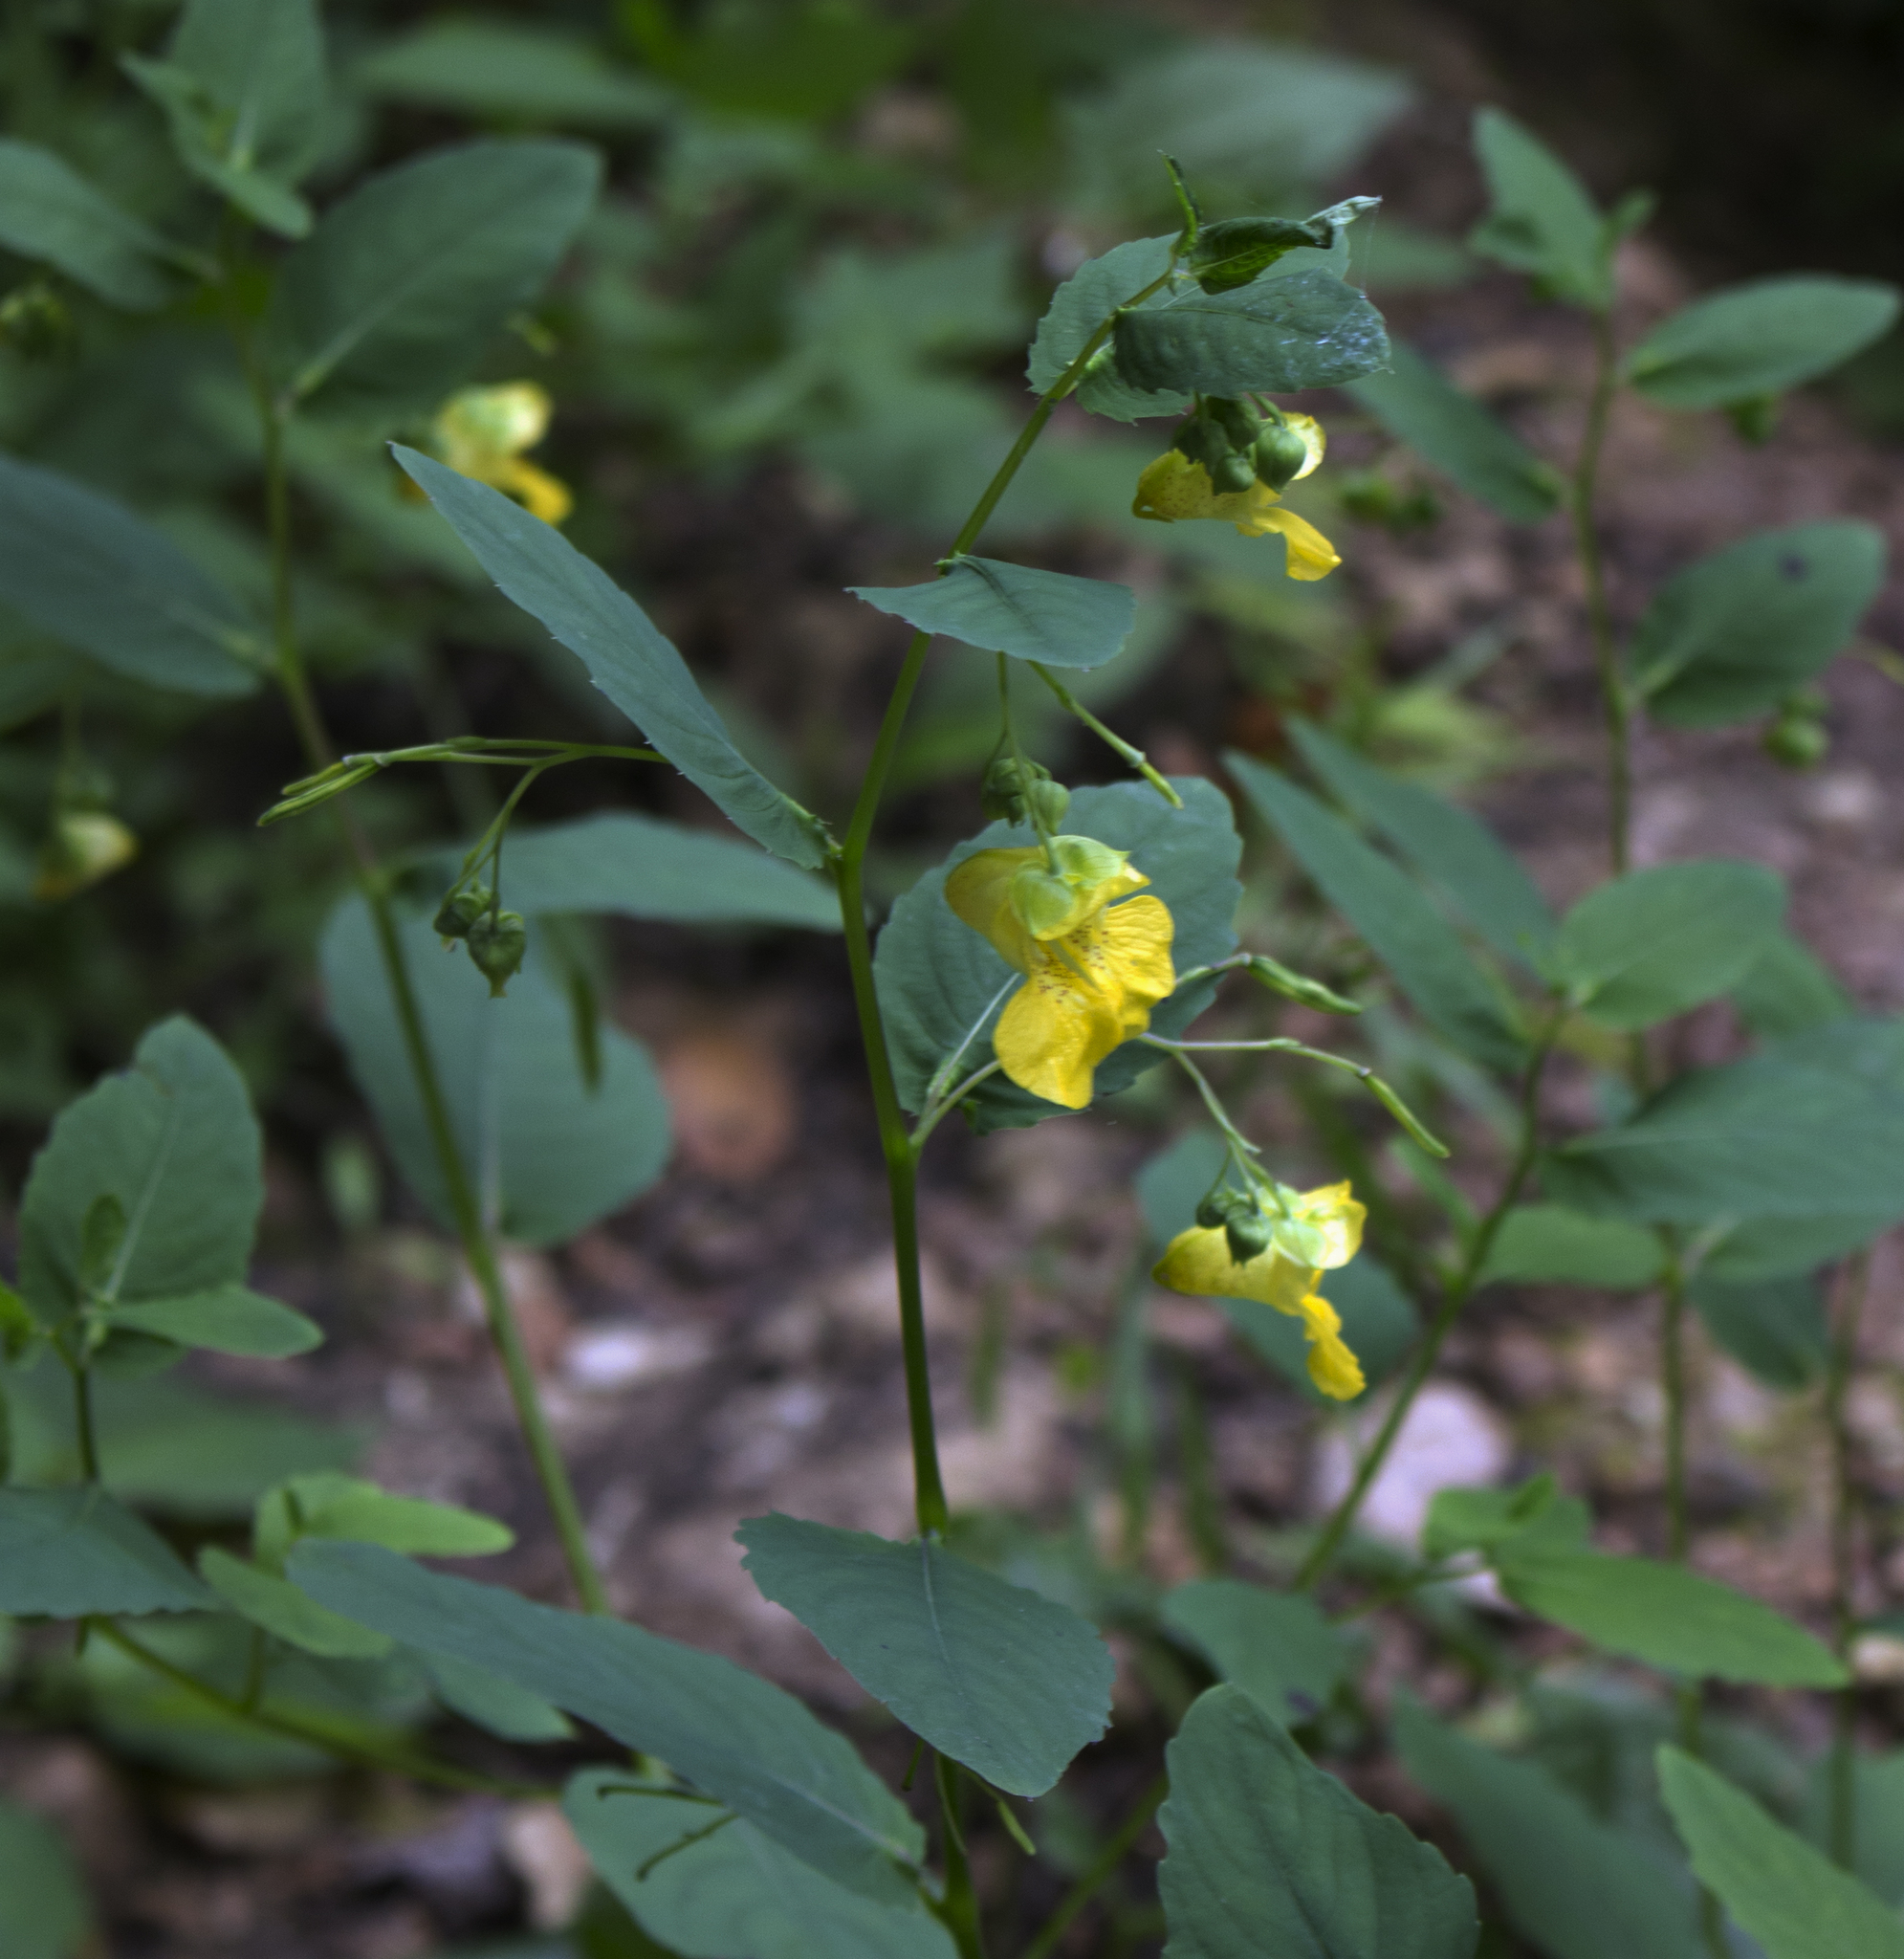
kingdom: Plantae
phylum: Tracheophyta
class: Magnoliopsida
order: Ericales
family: Balsaminaceae
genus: Impatiens
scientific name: Impatiens pallida
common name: Pale snapweed
